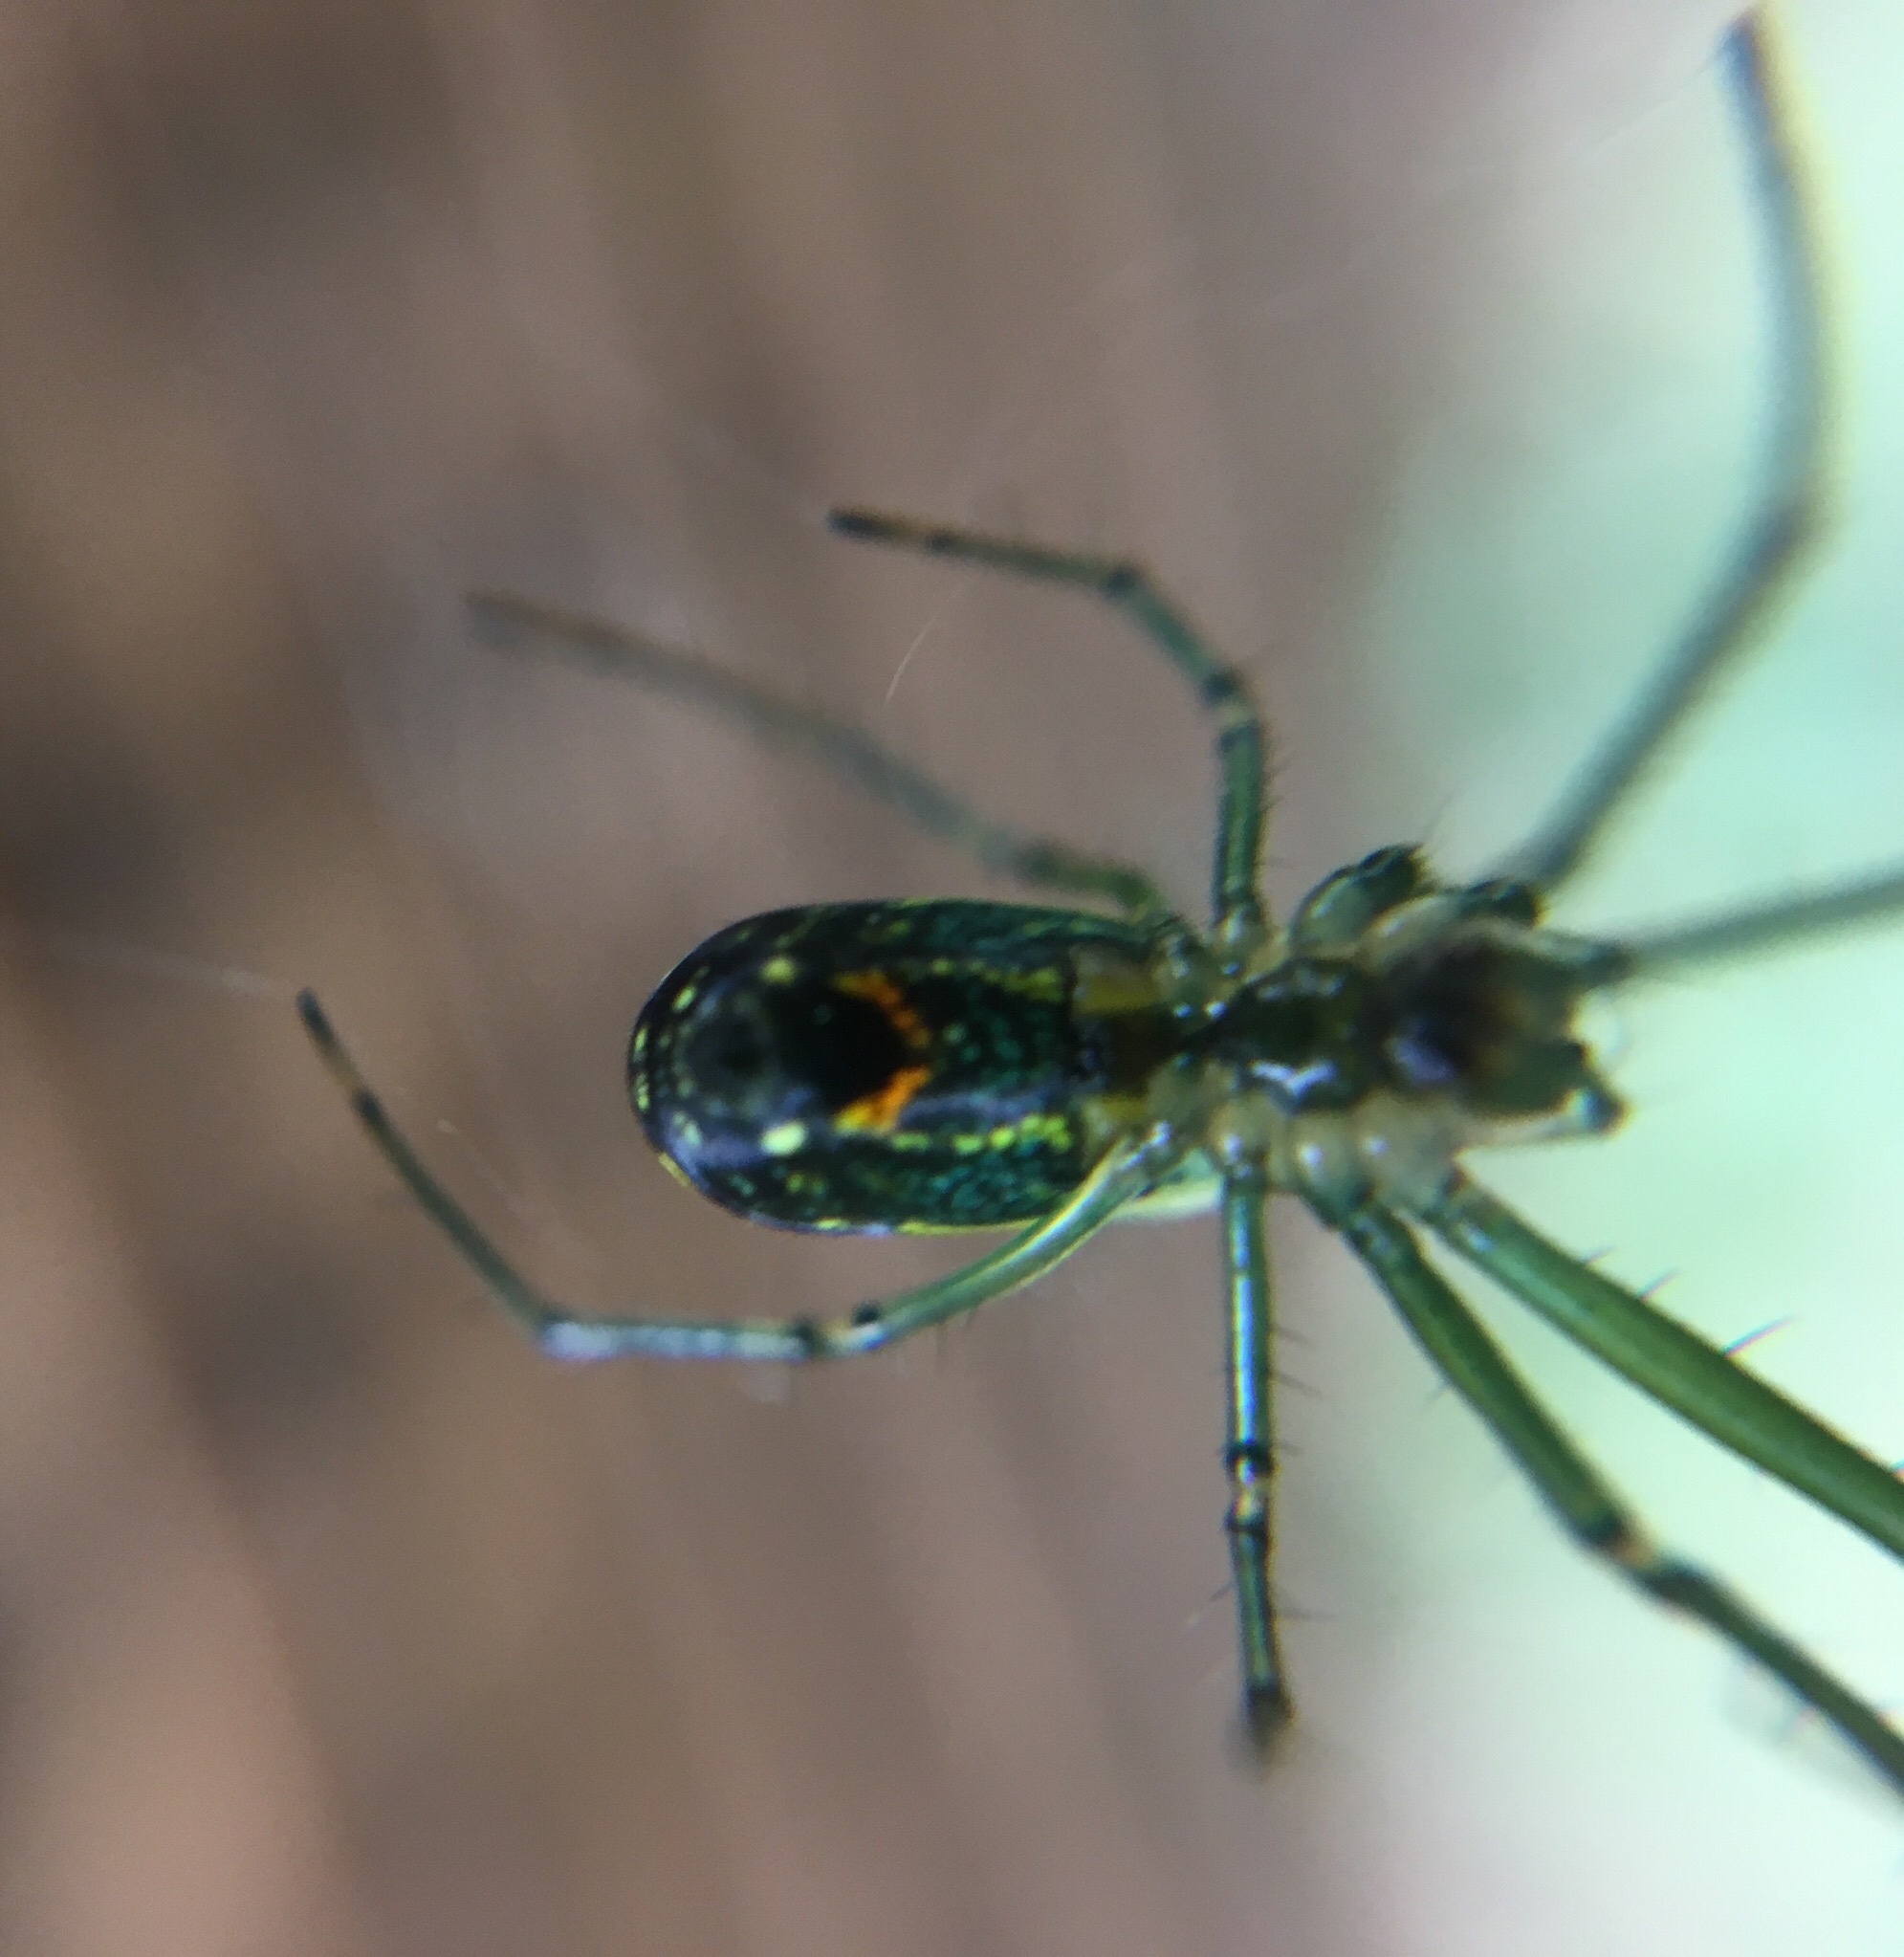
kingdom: Animalia
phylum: Arthropoda
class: Arachnida
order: Araneae
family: Tetragnathidae
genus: Leucauge
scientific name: Leucauge venusta
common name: Longjawed orb weavers
